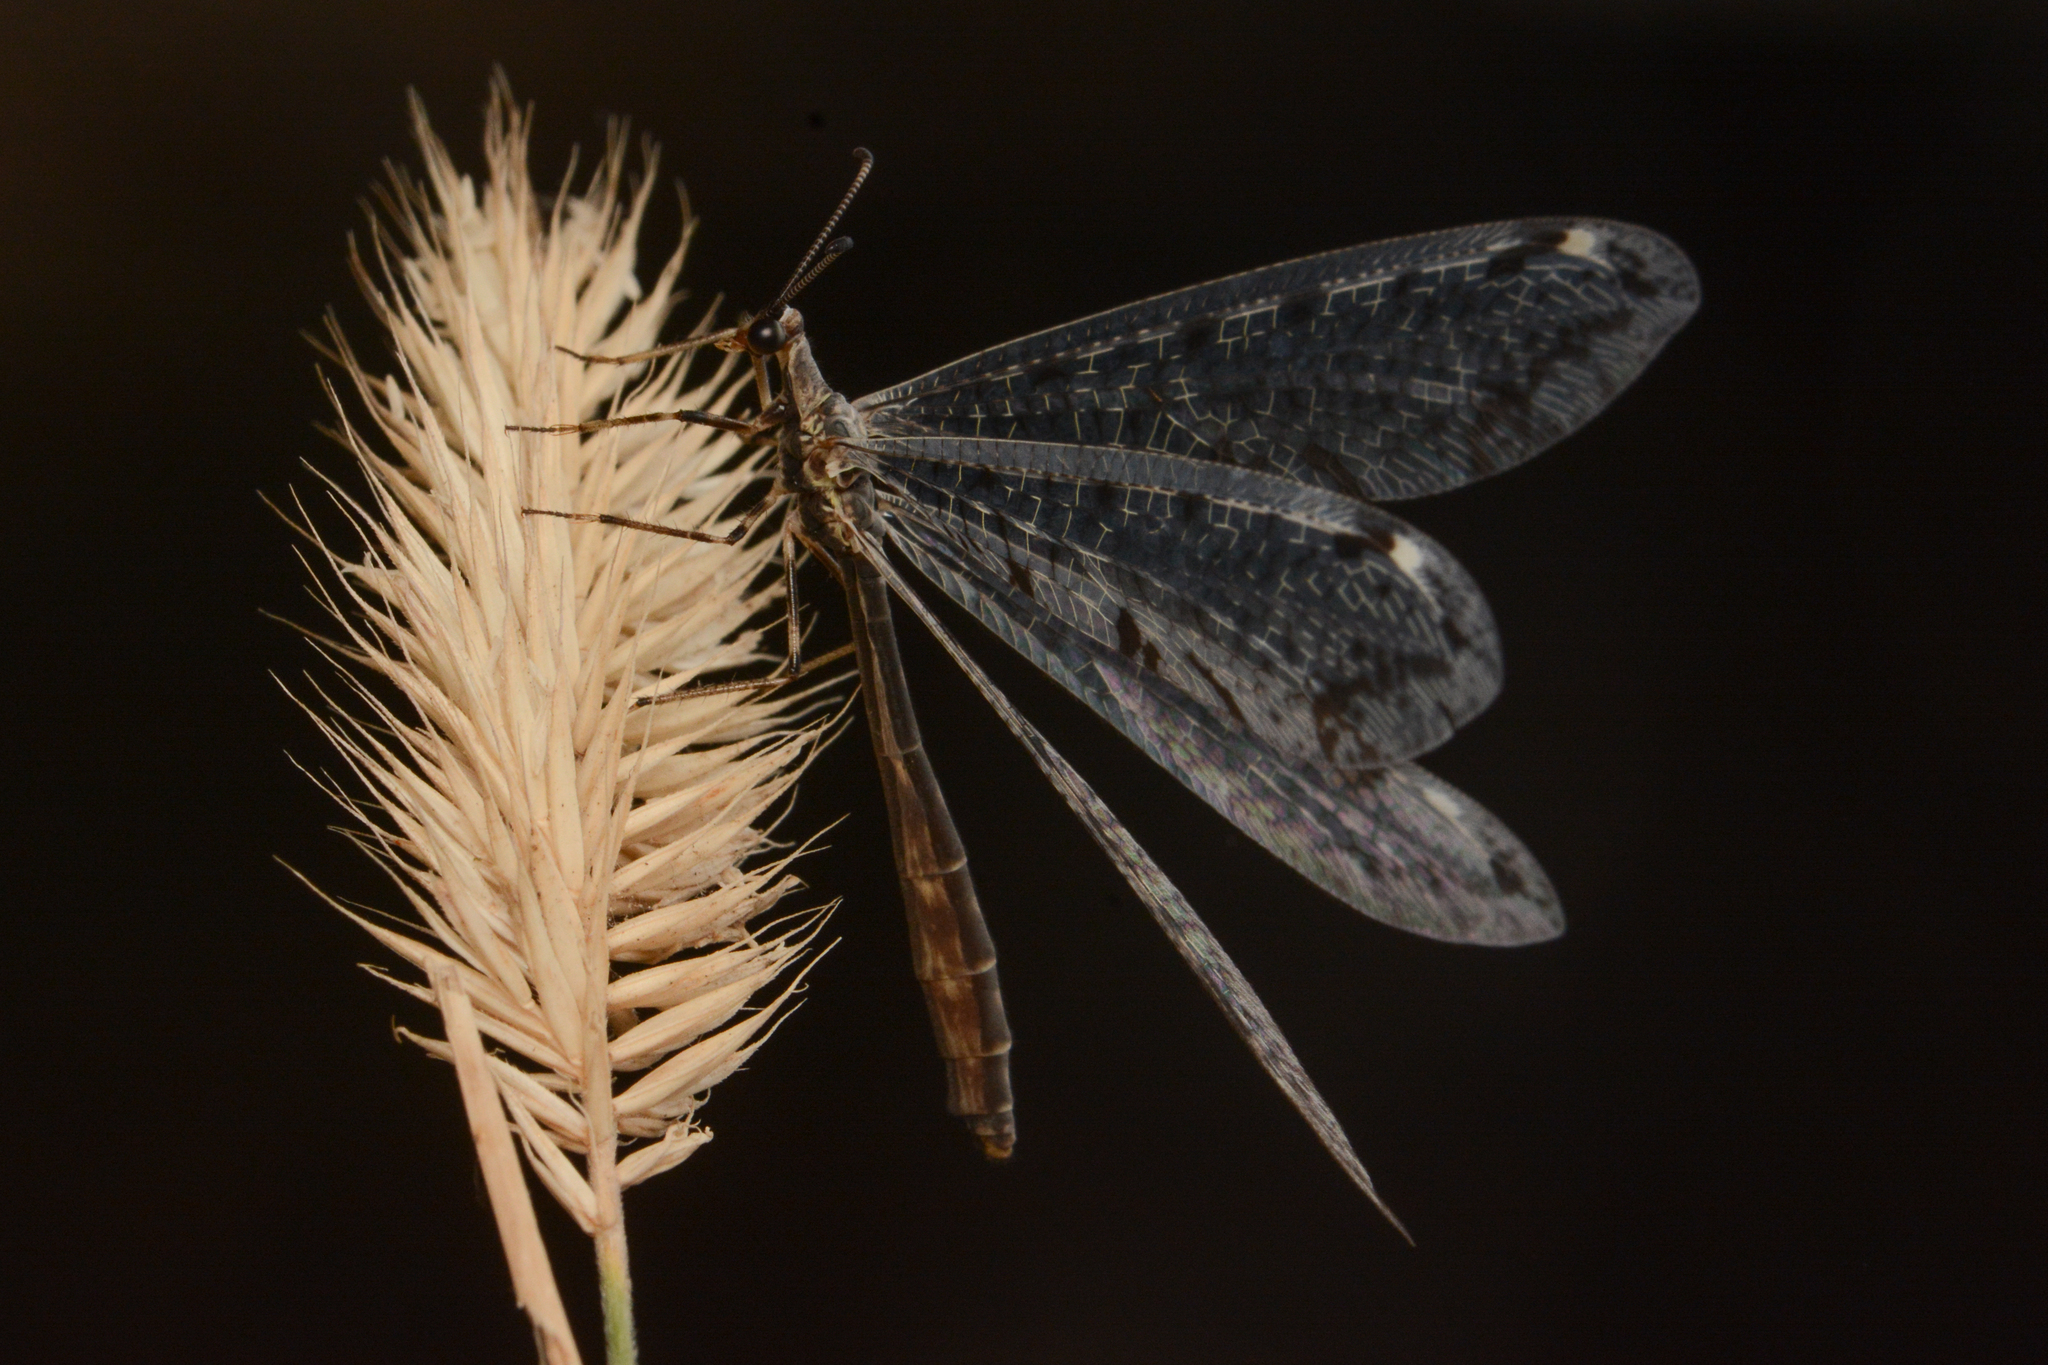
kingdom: Animalia
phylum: Arthropoda
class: Insecta
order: Neuroptera
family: Myrmeleontidae
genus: Dendroleon
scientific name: Dendroleon speciosus
